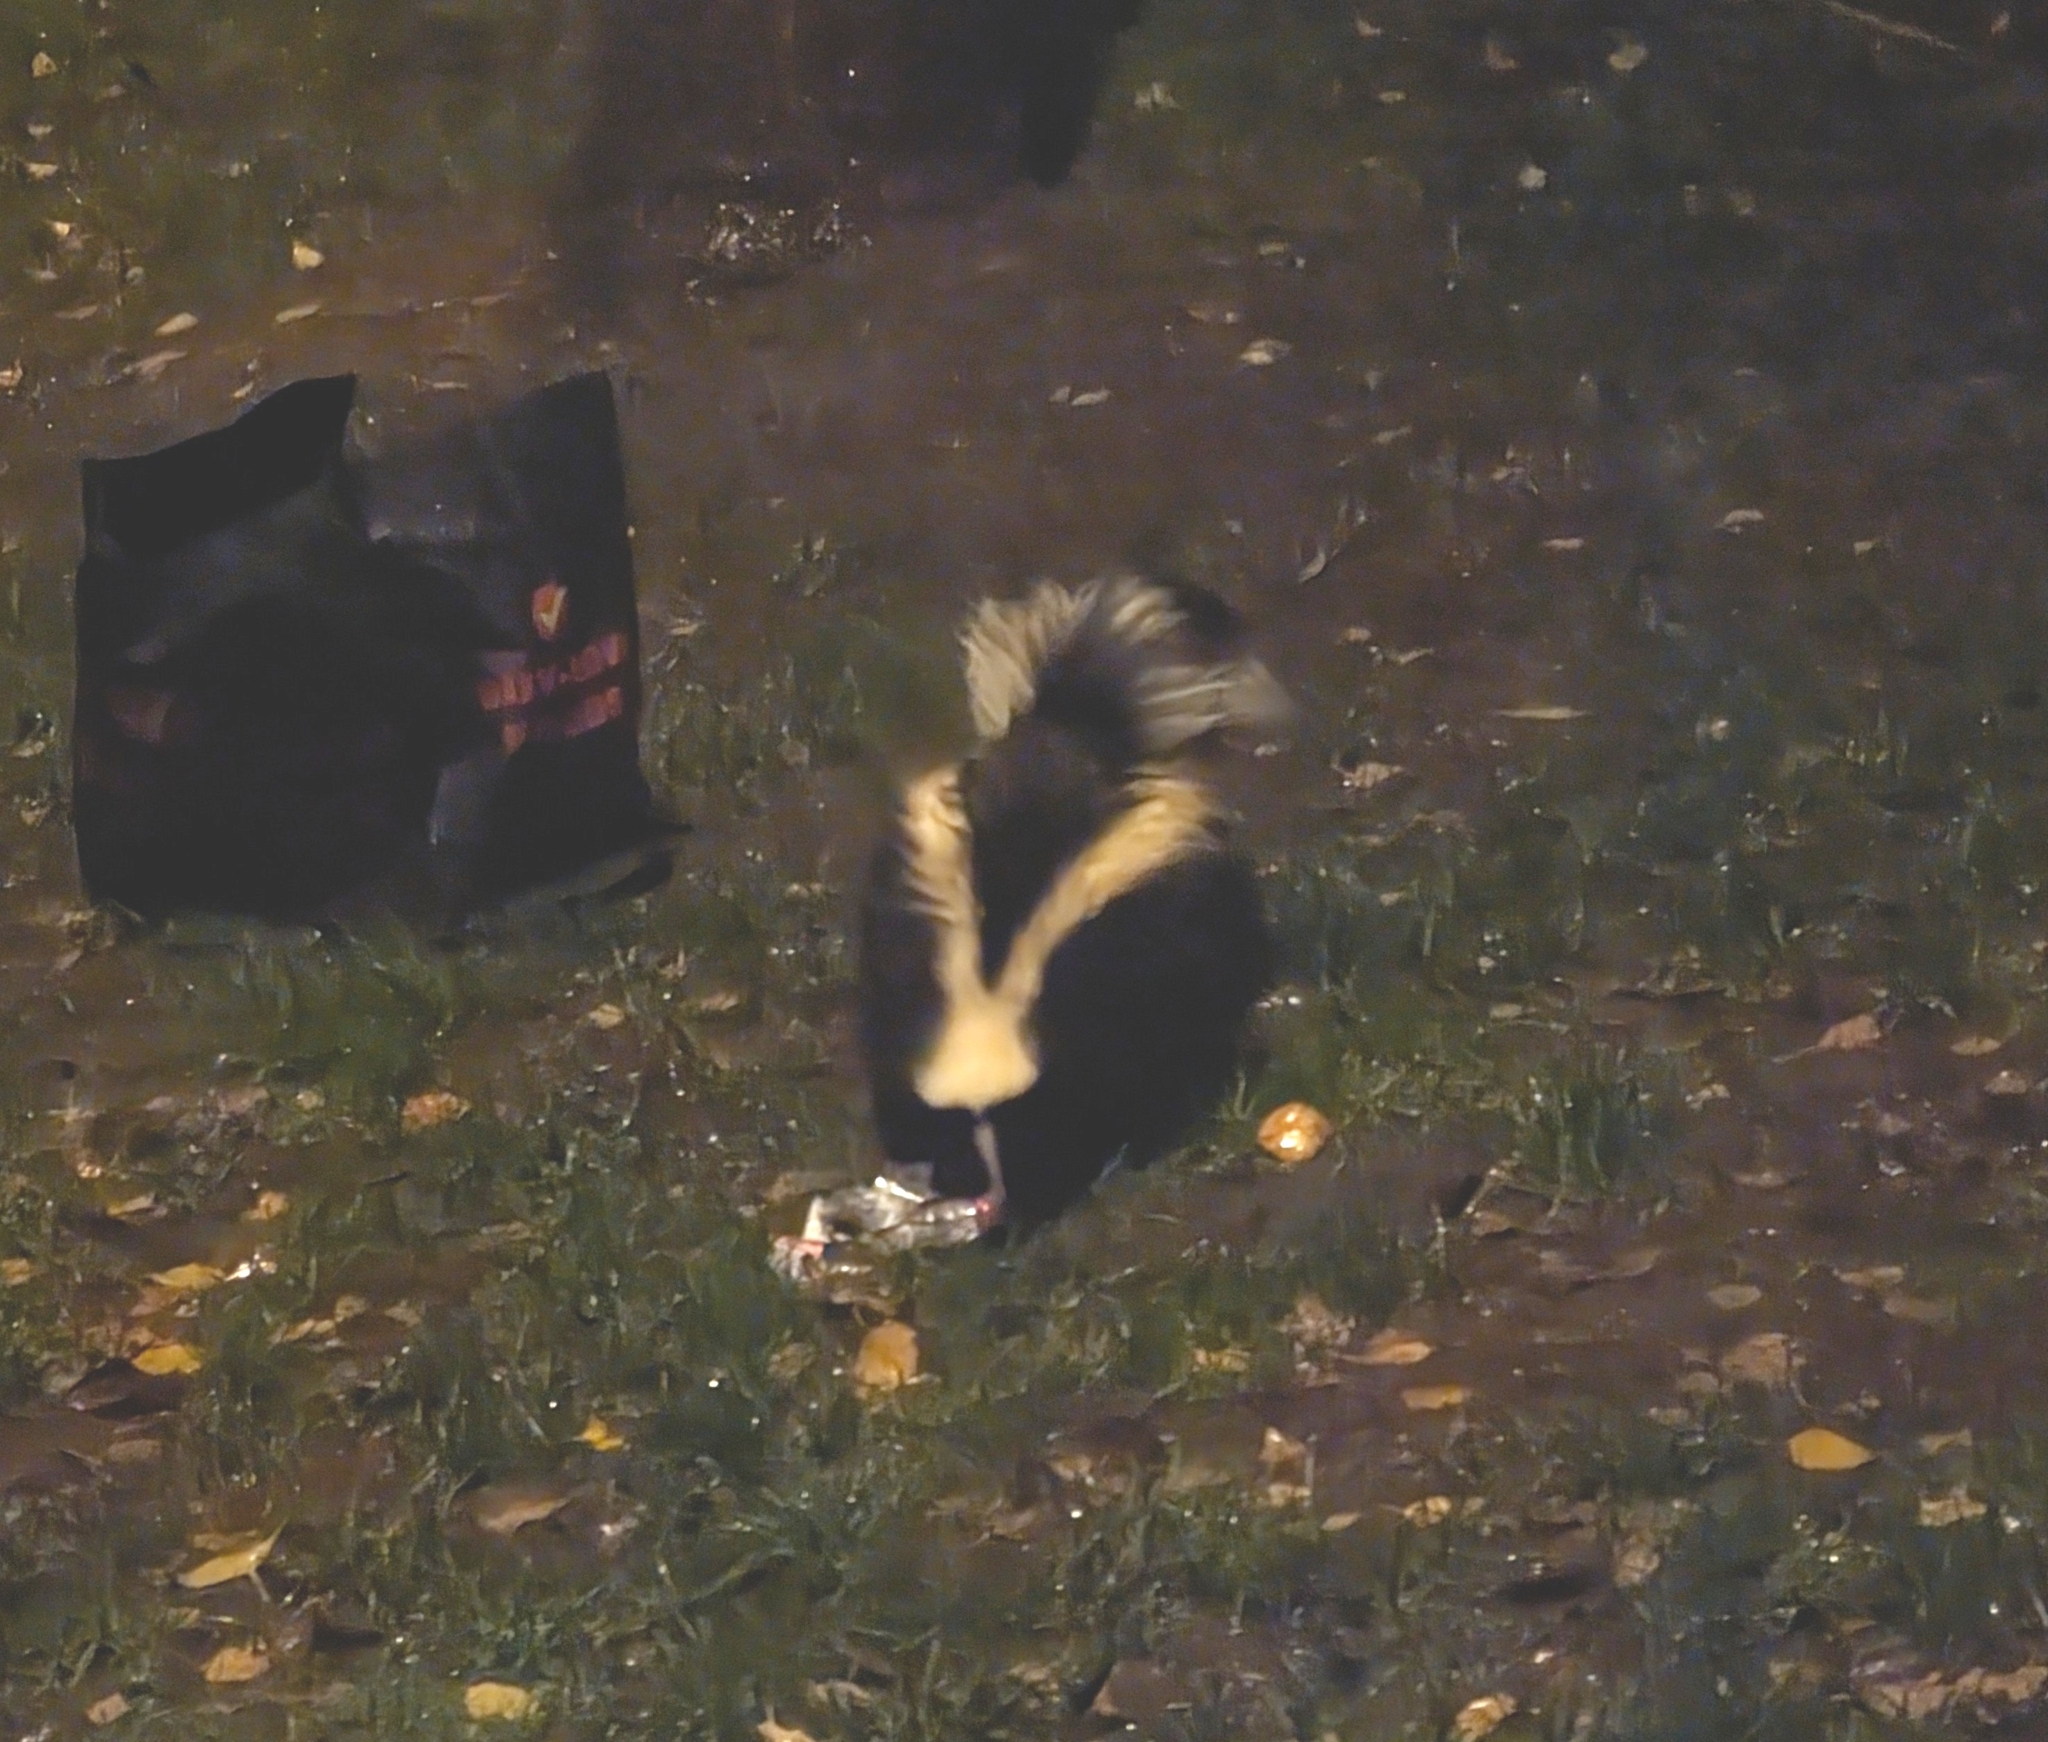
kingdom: Animalia
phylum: Chordata
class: Mammalia
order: Carnivora
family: Mephitidae
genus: Mephitis
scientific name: Mephitis mephitis
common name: Striped skunk
